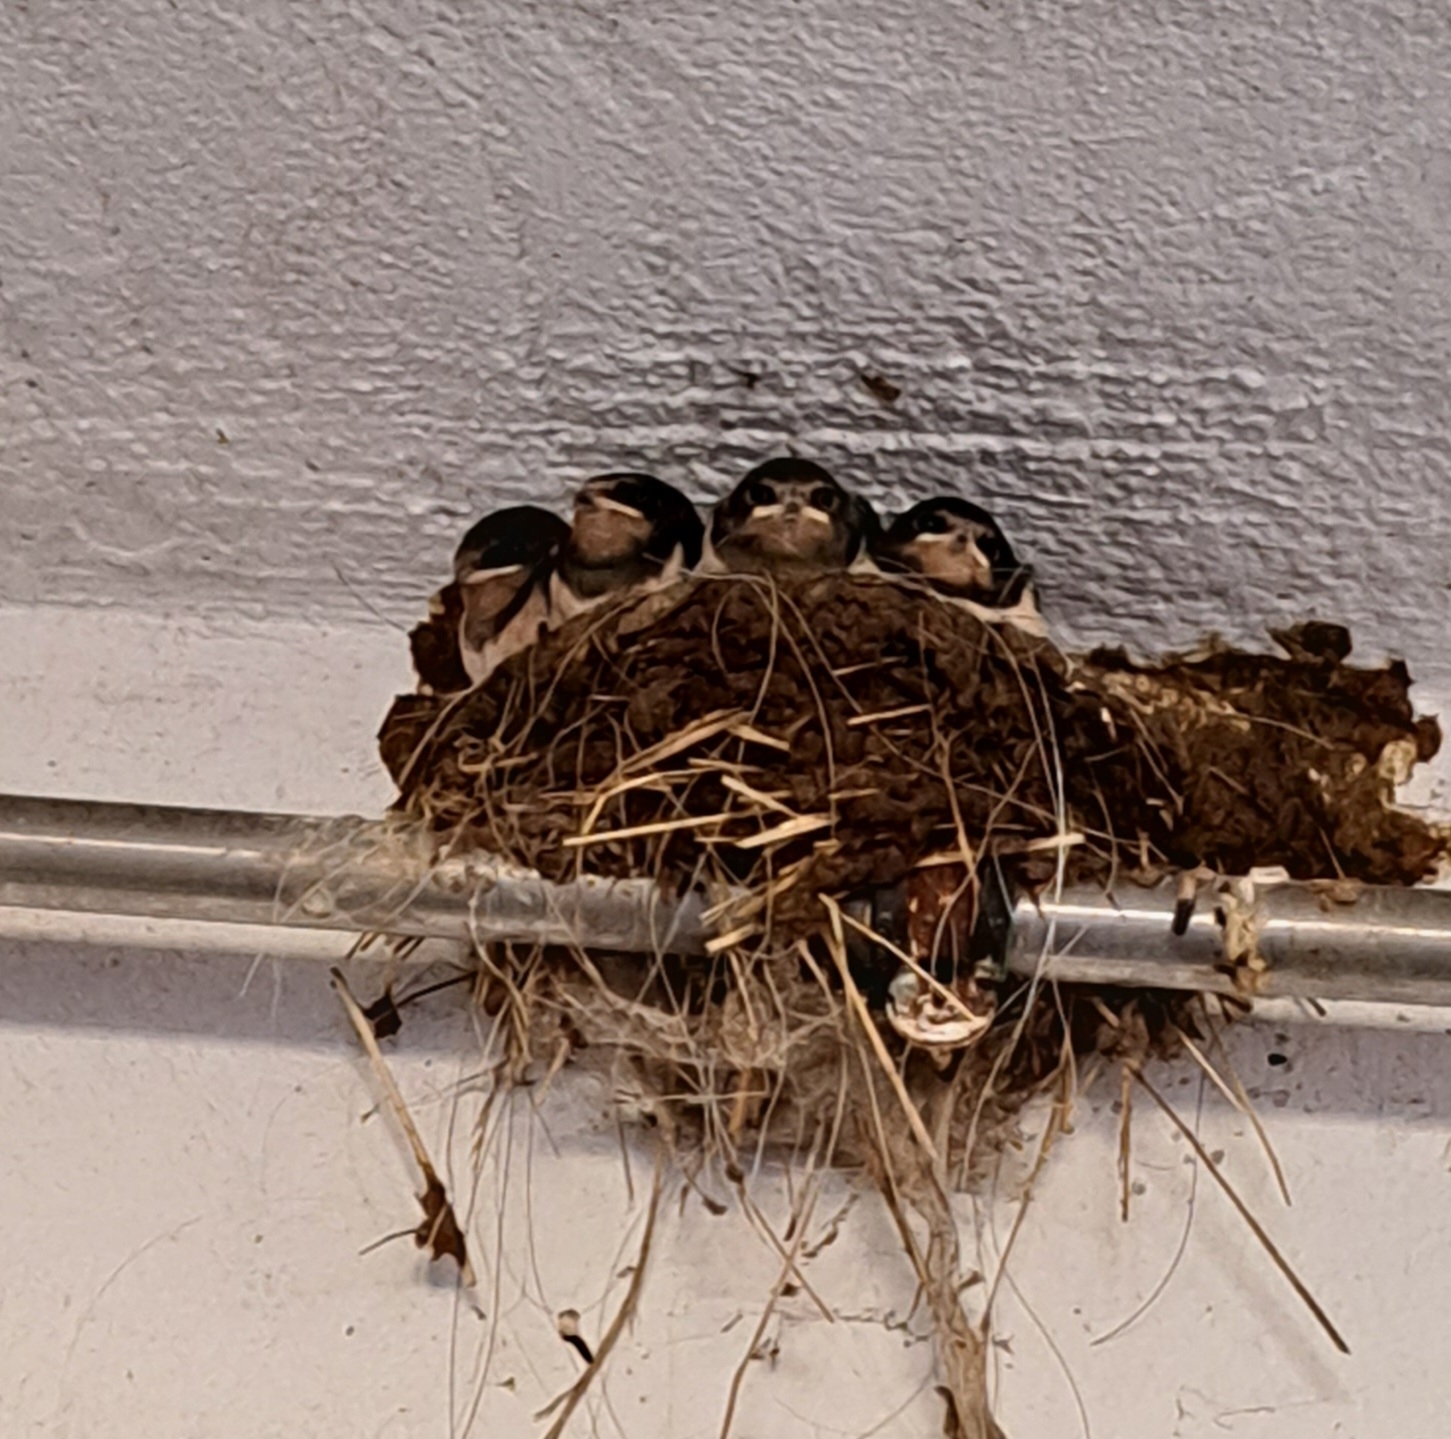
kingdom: Animalia
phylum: Chordata
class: Aves
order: Passeriformes
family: Hirundinidae
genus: Hirundo
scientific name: Hirundo rustica
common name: Barn swallow
